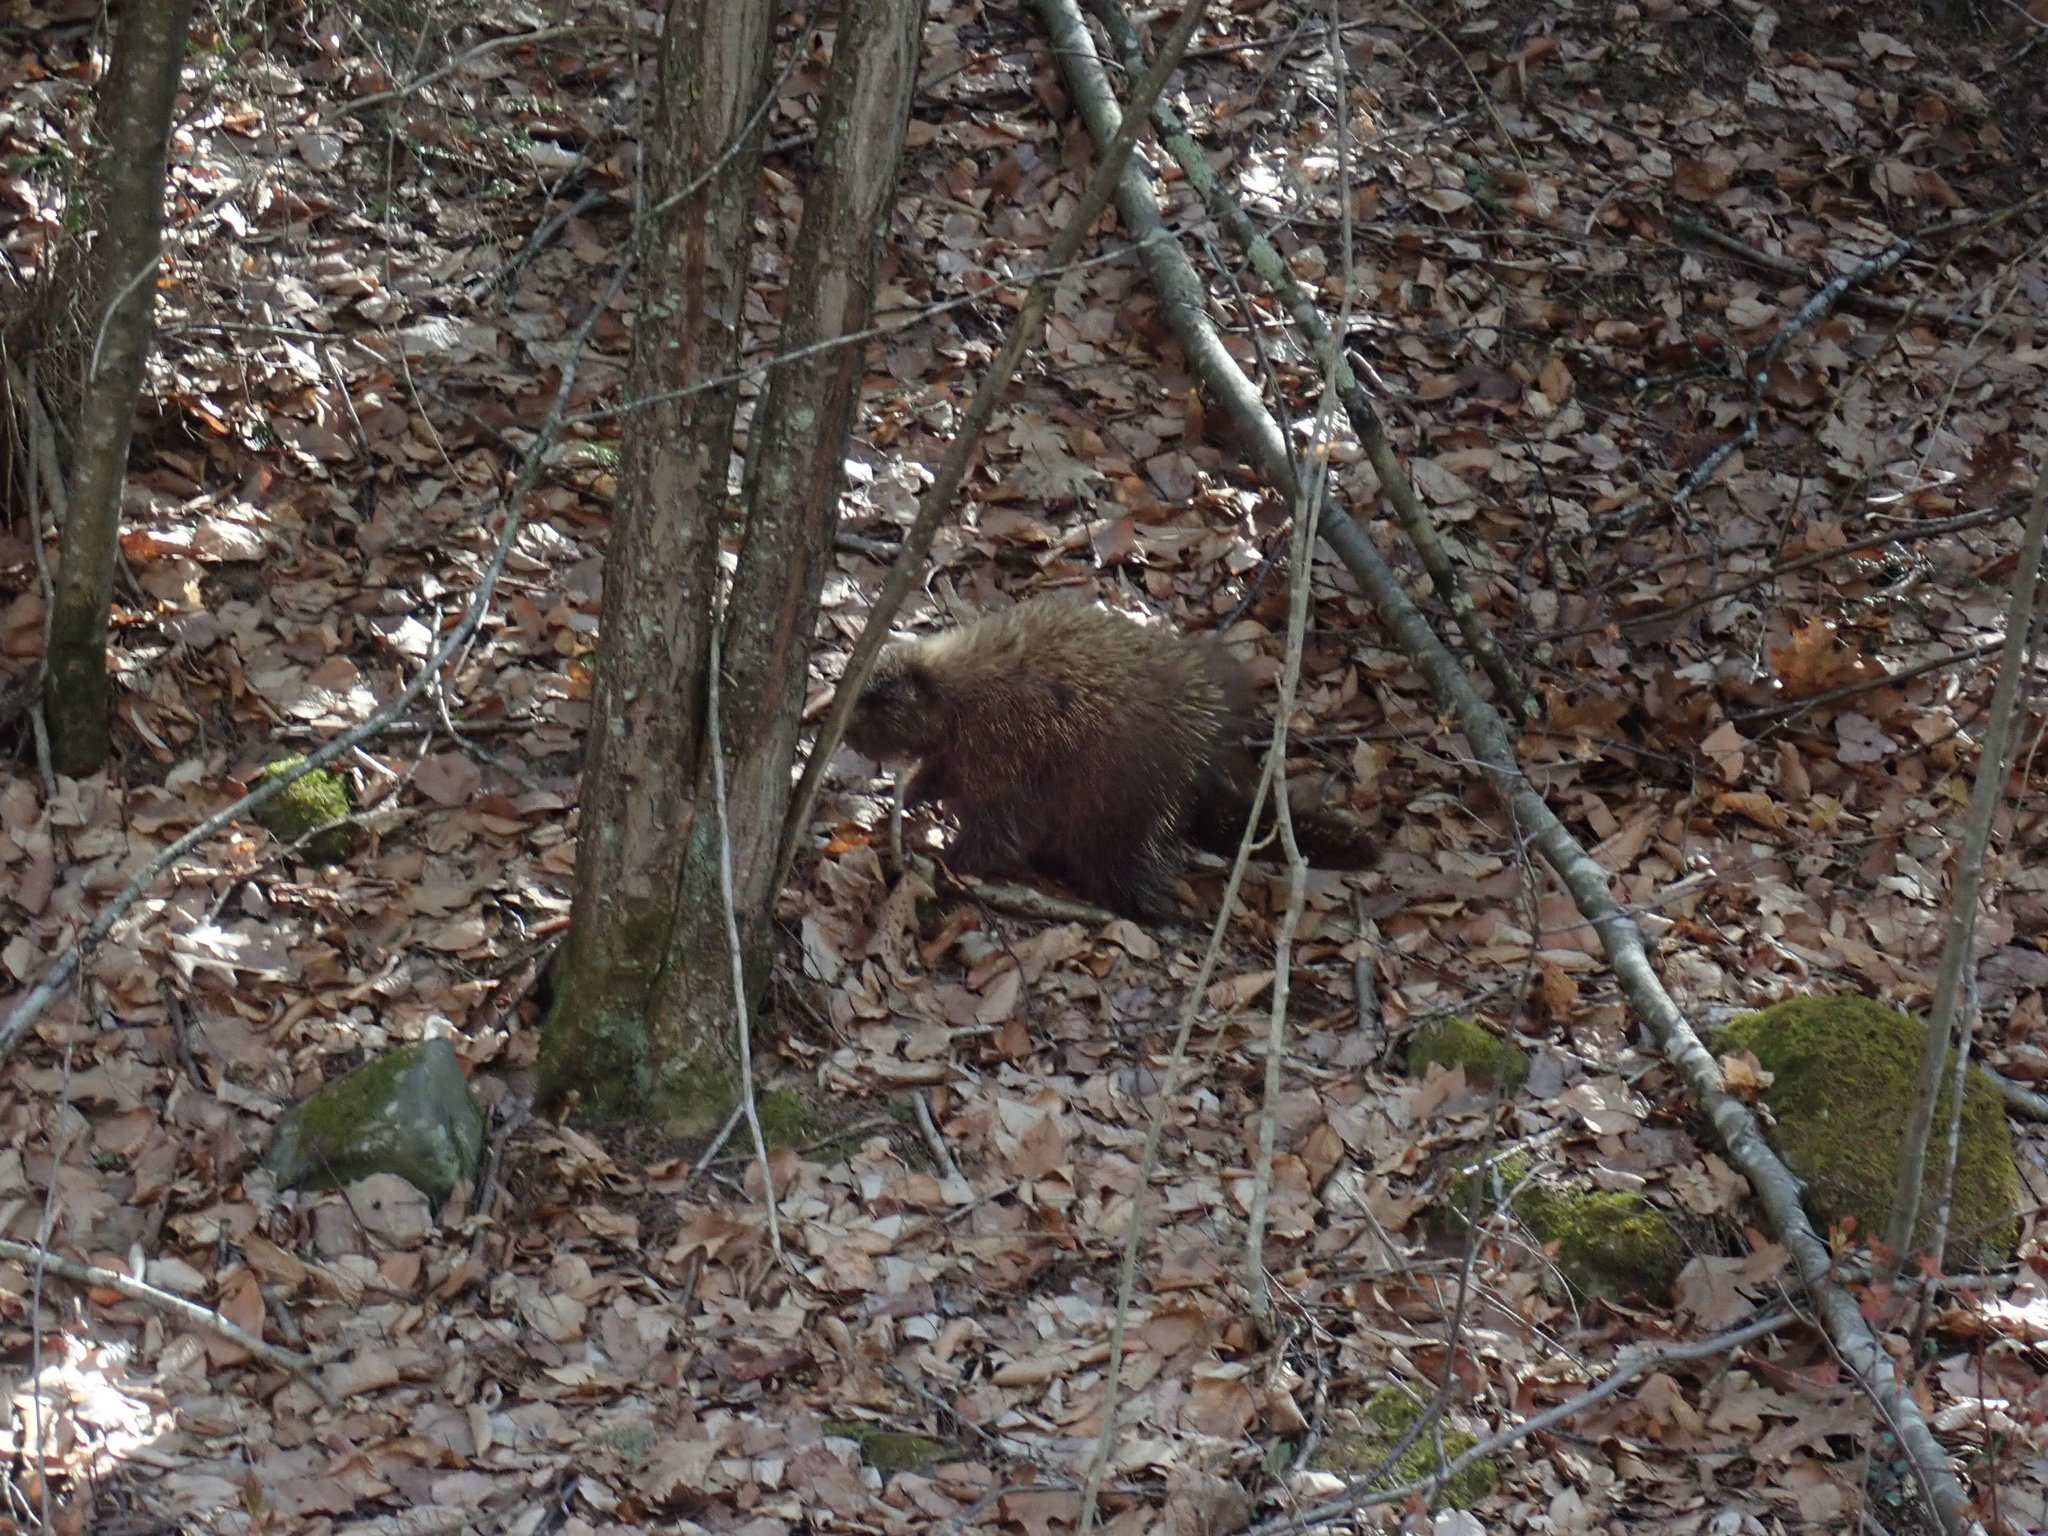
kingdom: Animalia
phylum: Chordata
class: Mammalia
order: Rodentia
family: Erethizontidae
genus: Erethizon
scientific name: Erethizon dorsatus
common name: North american porcupine
